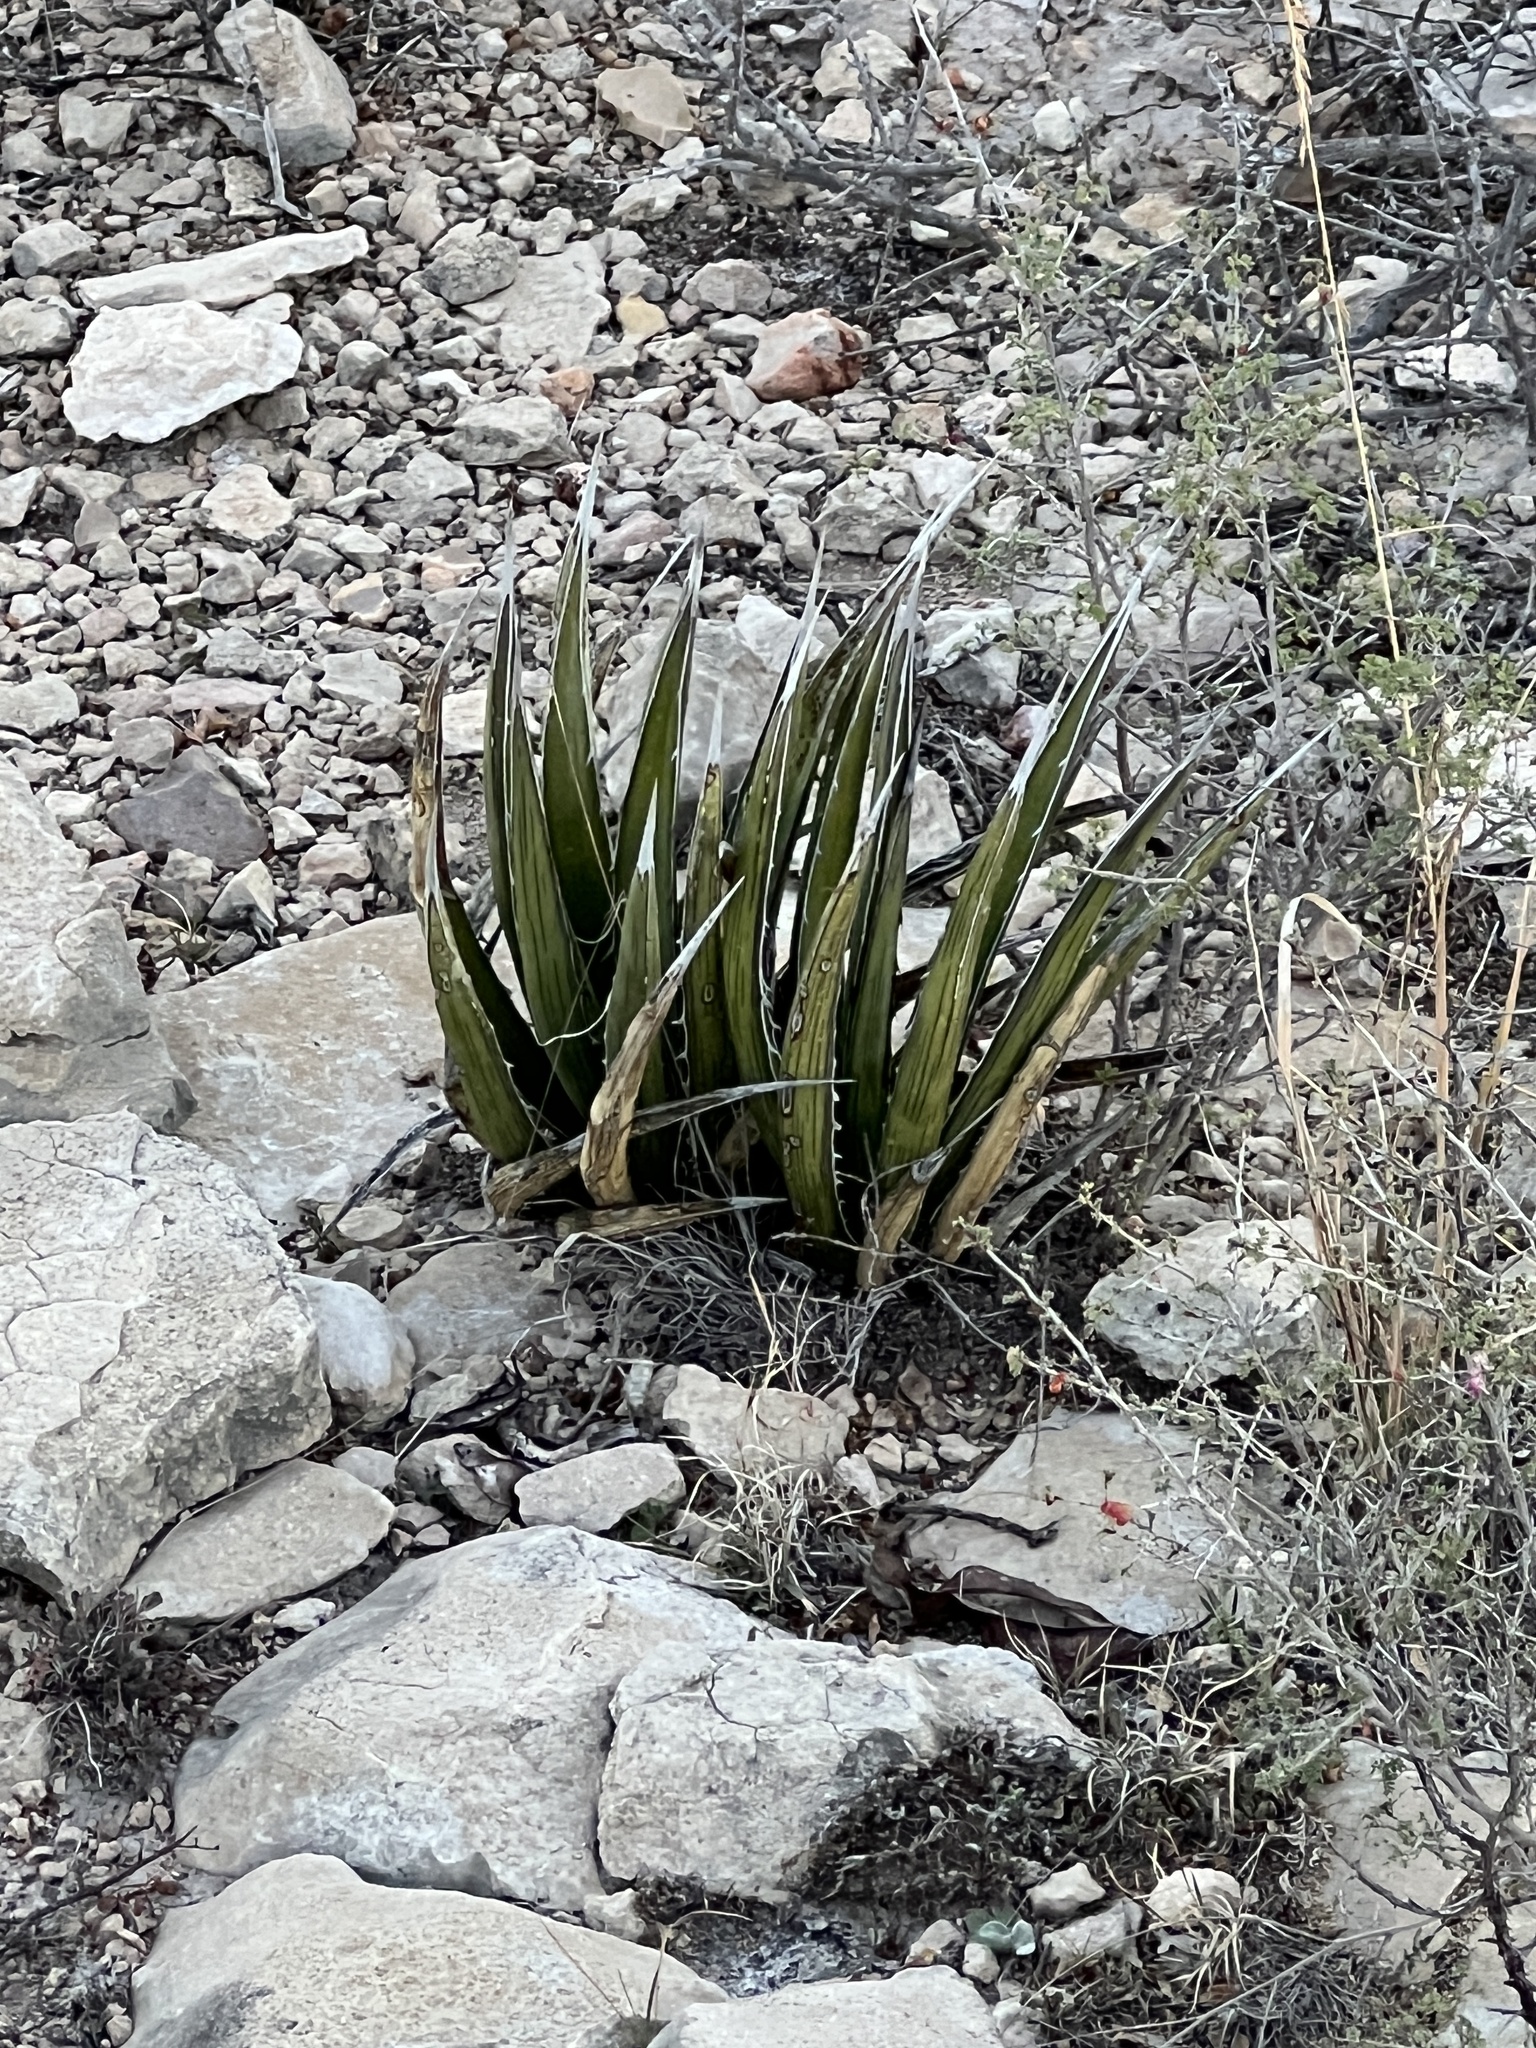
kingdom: Plantae
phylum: Tracheophyta
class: Liliopsida
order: Asparagales
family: Asparagaceae
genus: Agave
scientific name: Agave lechuguilla
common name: Lecheguilla agave
